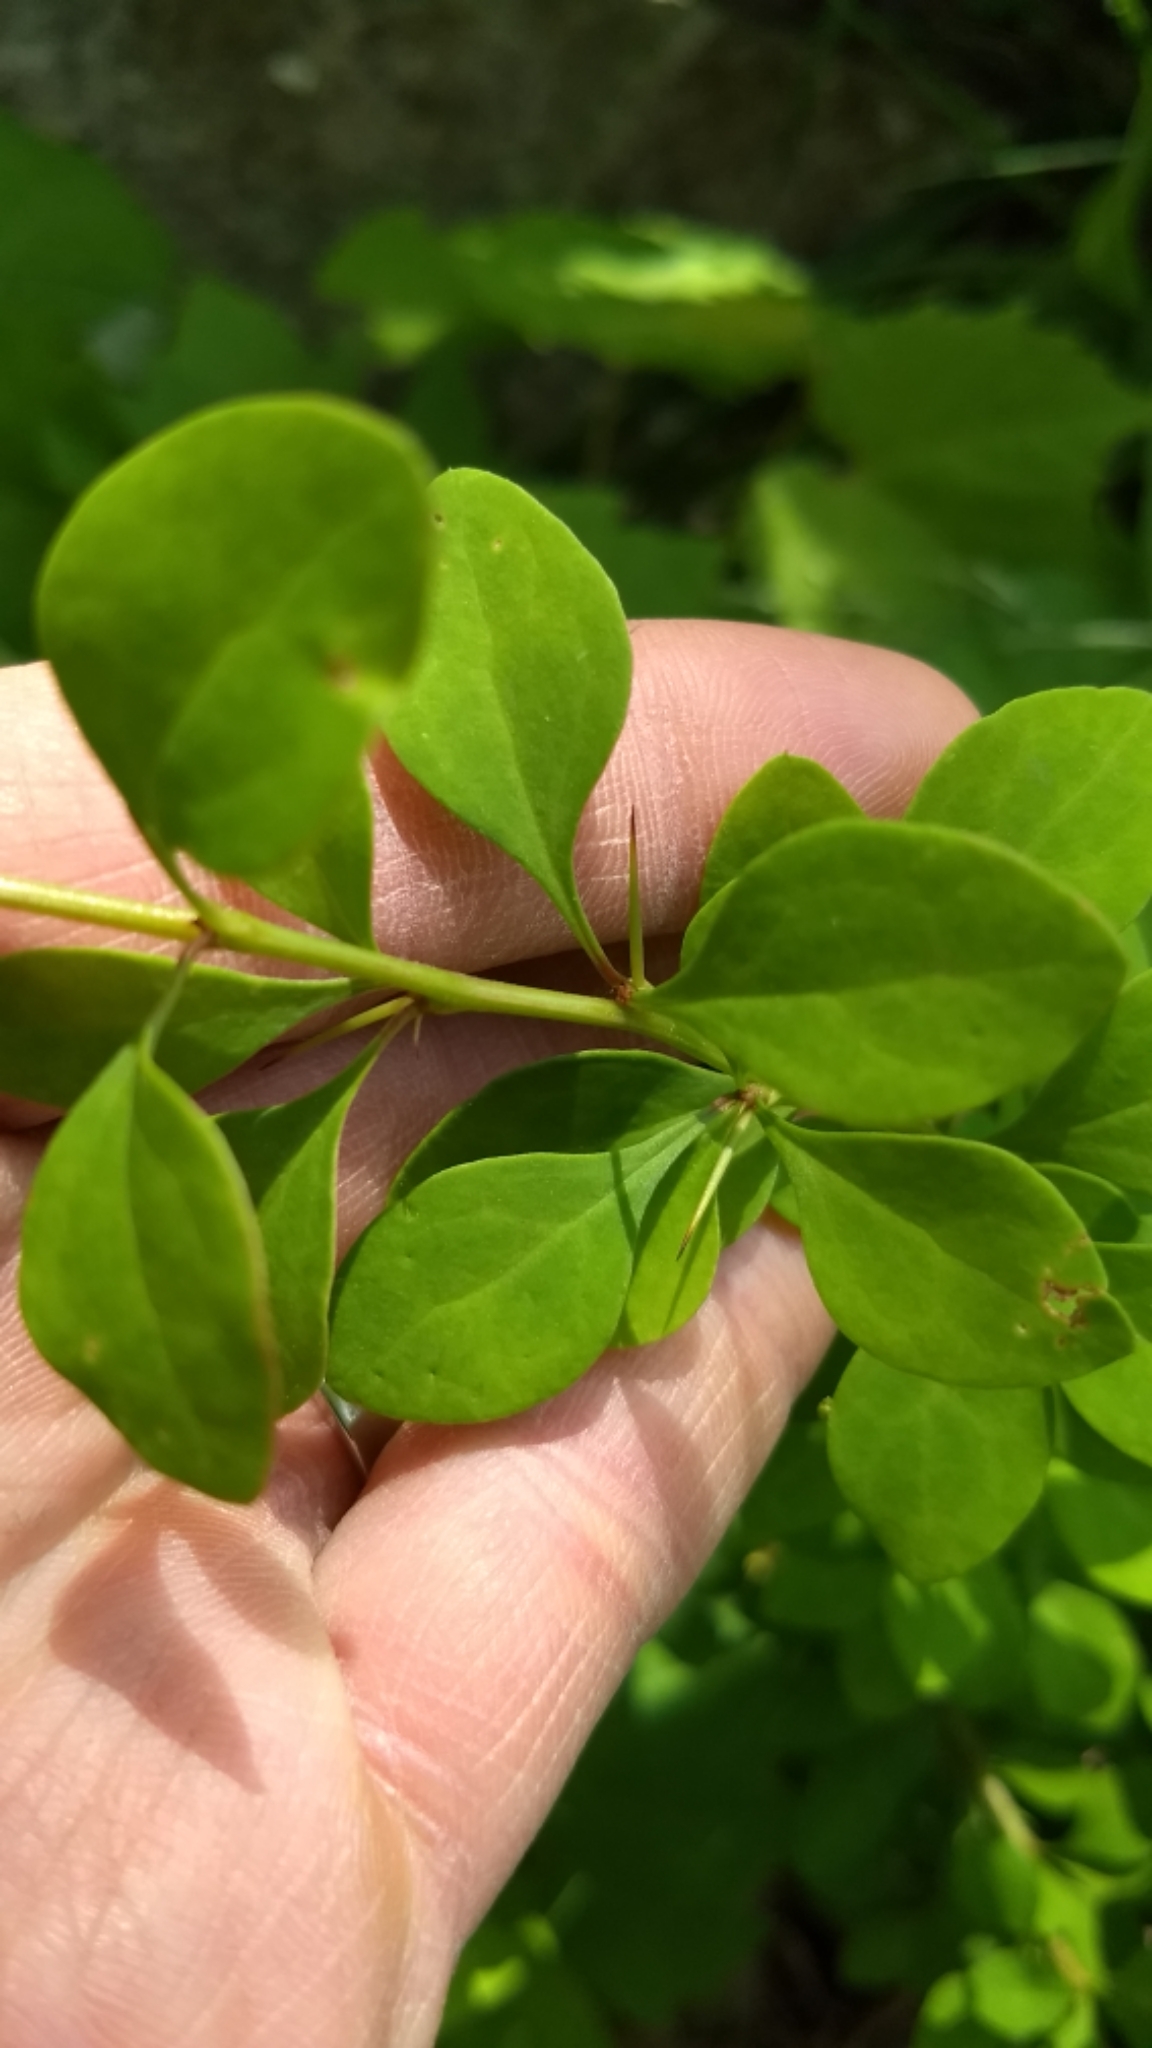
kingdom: Plantae
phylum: Tracheophyta
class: Magnoliopsida
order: Ranunculales
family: Berberidaceae
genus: Berberis
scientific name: Berberis thunbergii
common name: Japanese barberry
